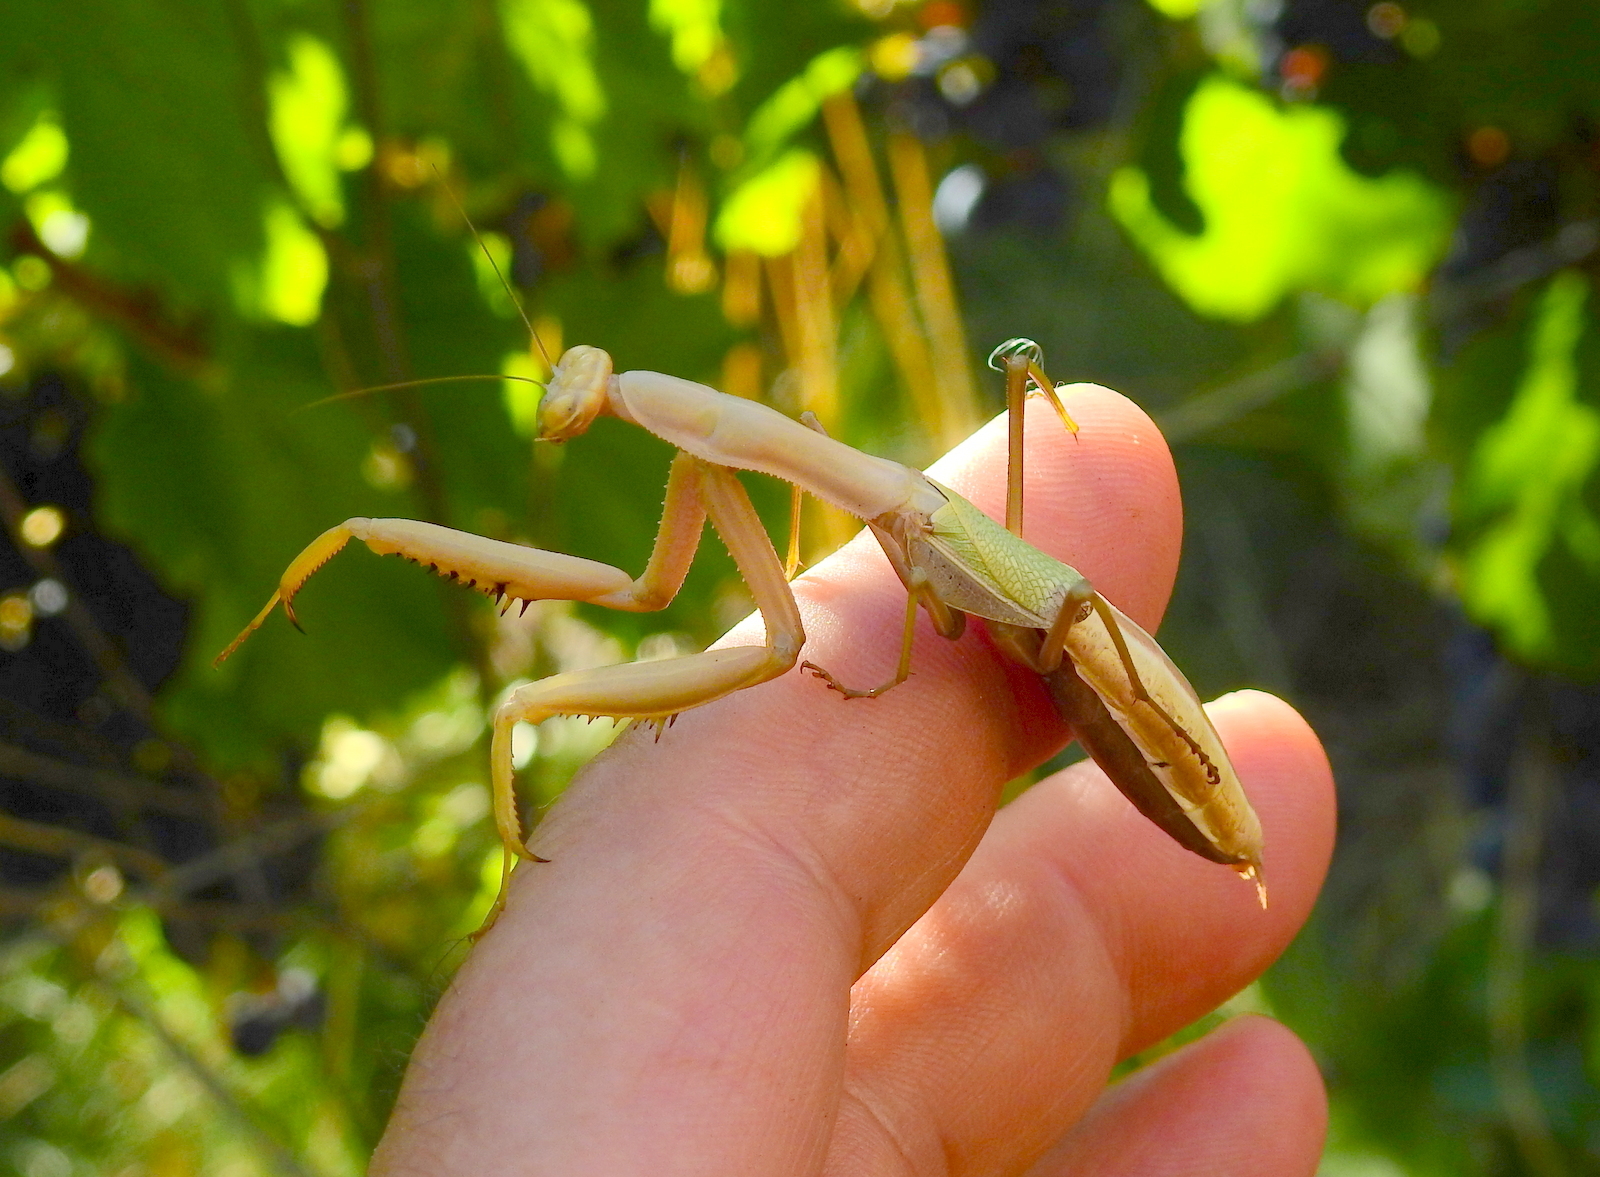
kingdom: Animalia
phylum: Arthropoda
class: Insecta
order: Mantodea
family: Coptopterygidae
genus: Coptopteryx
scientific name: Coptopteryx argentina
